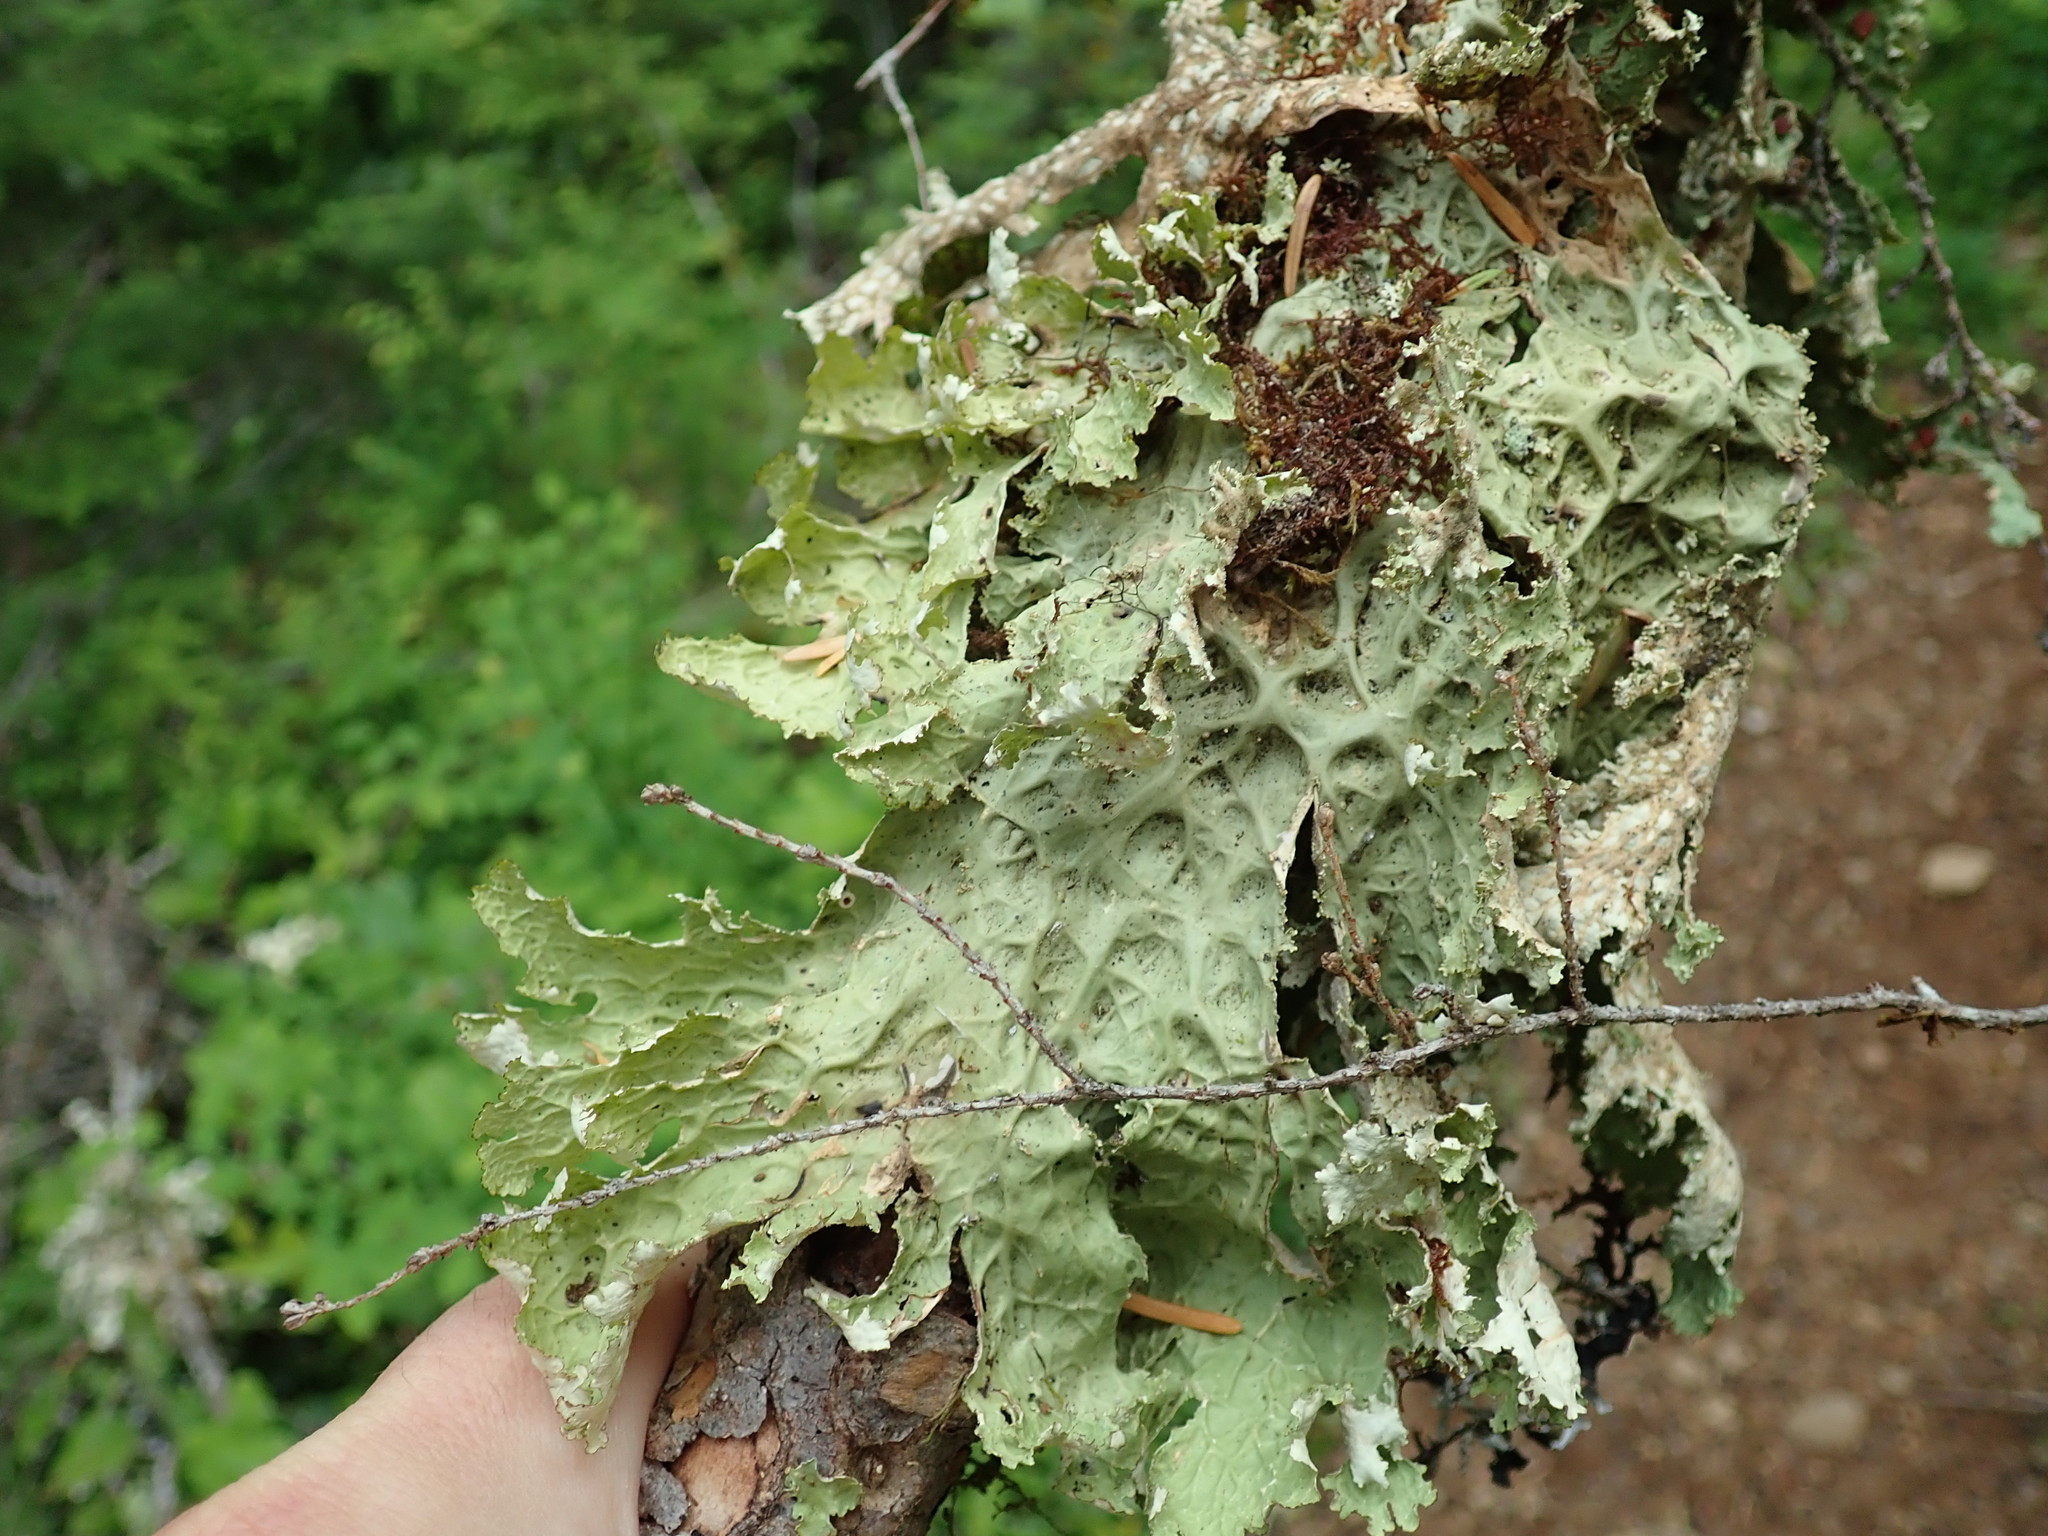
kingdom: Fungi
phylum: Ascomycota
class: Lecanoromycetes
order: Peltigerales
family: Lobariaceae
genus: Lobaria
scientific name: Lobaria oregana
